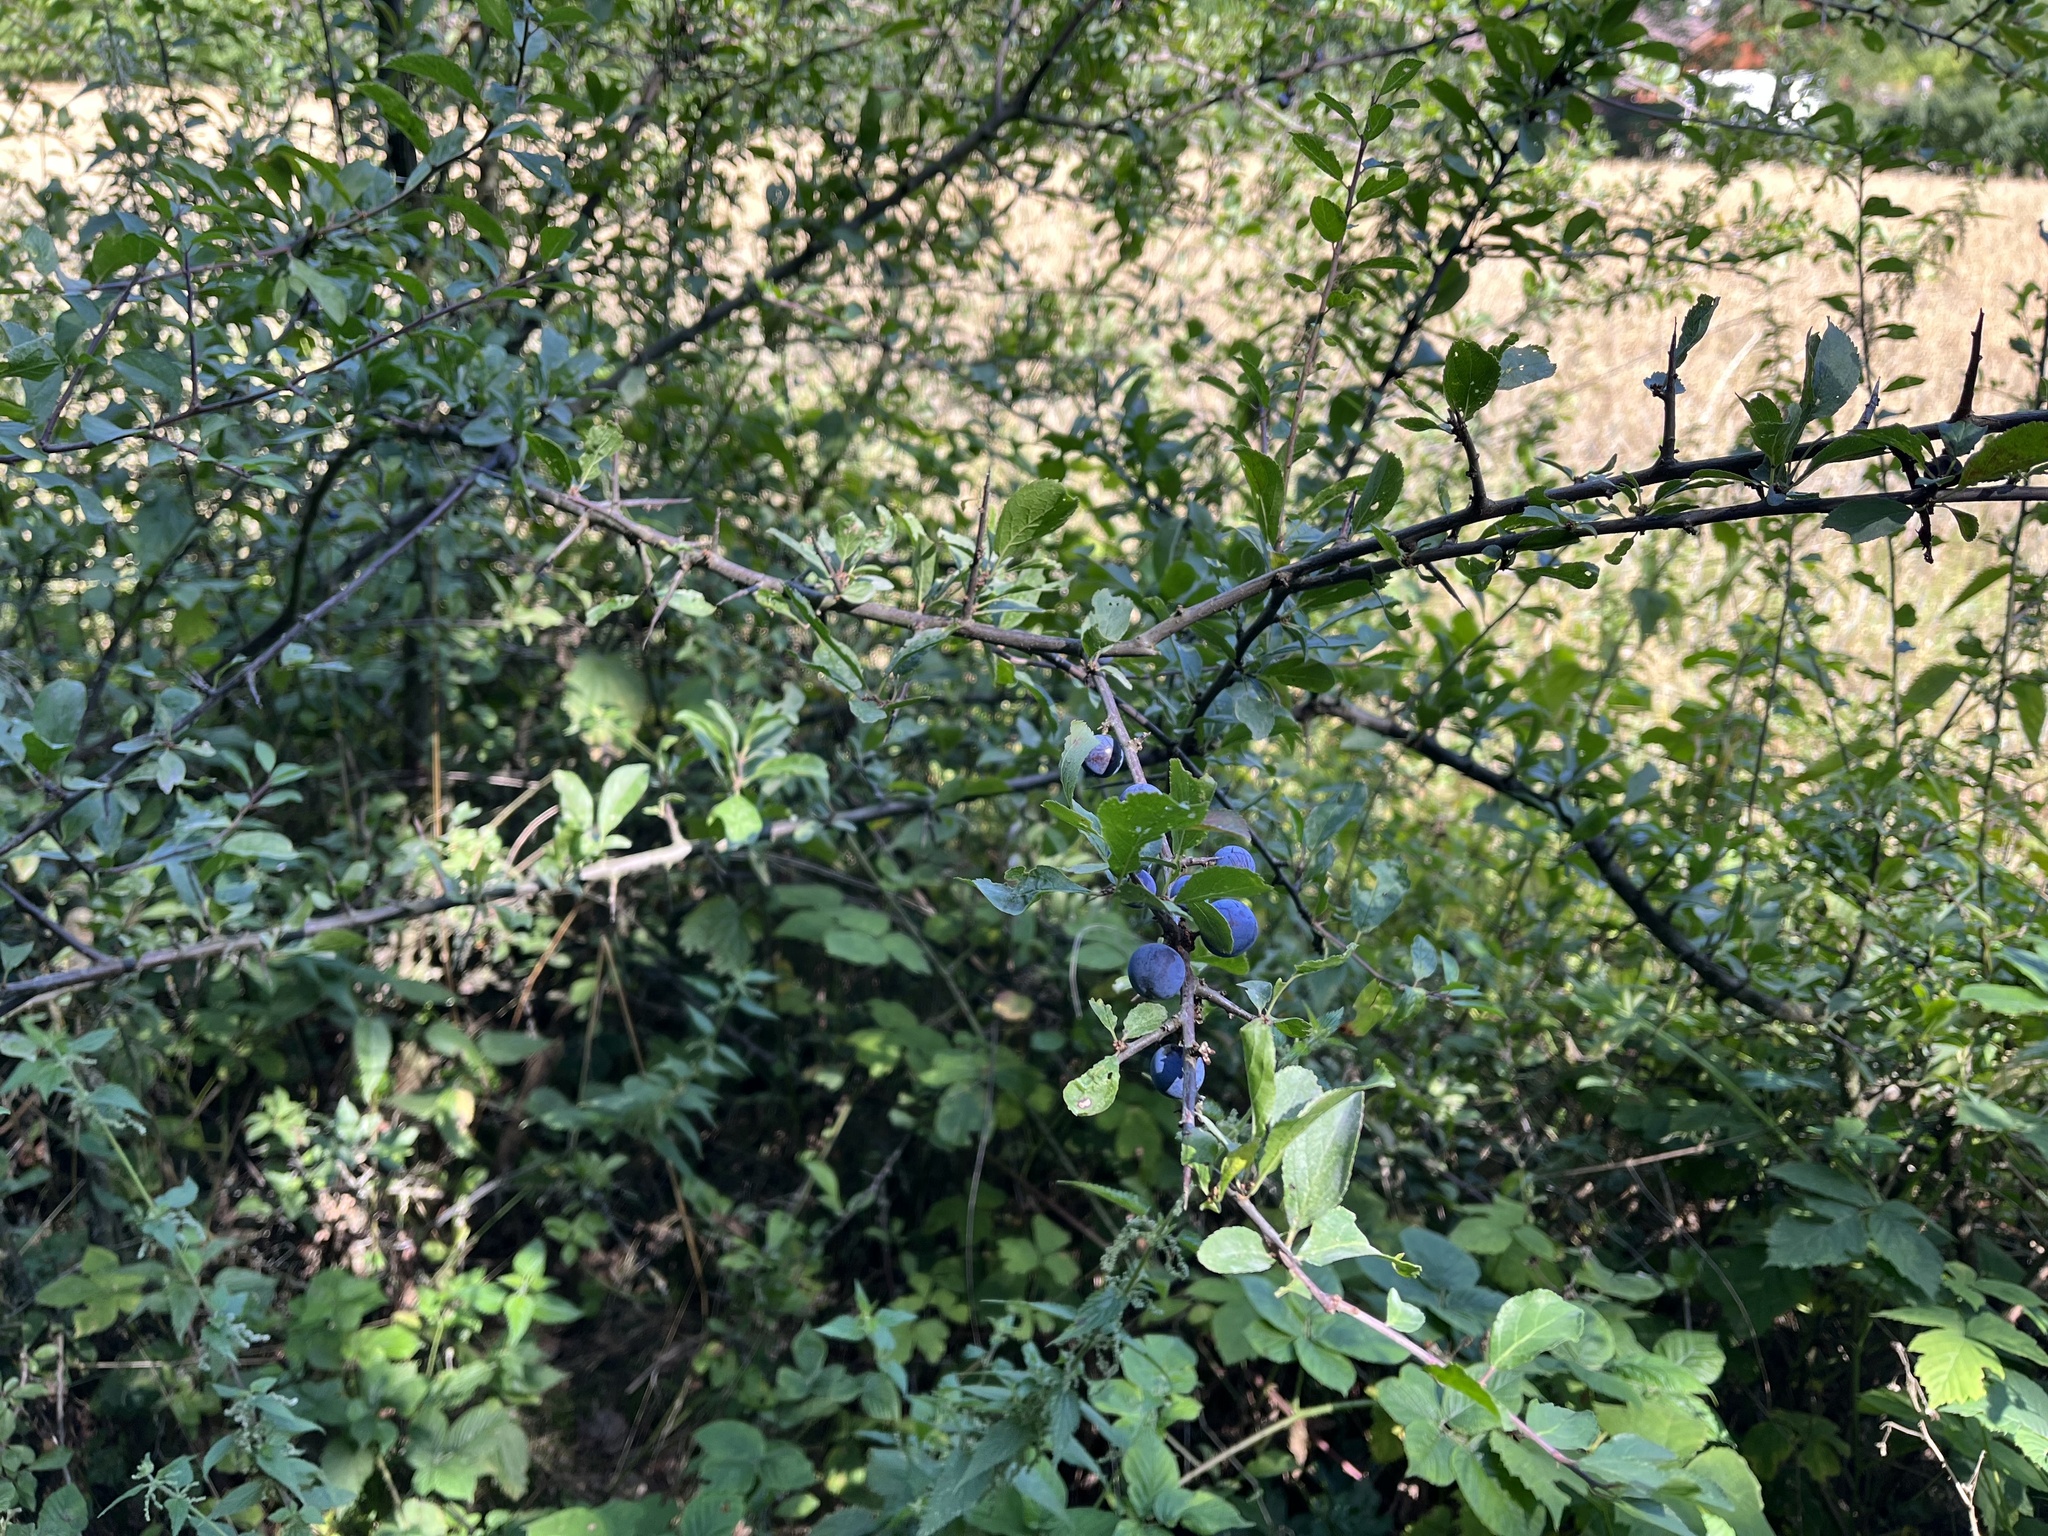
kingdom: Plantae
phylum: Tracheophyta
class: Magnoliopsida
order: Rosales
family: Rosaceae
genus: Prunus
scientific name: Prunus spinosa
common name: Blackthorn
